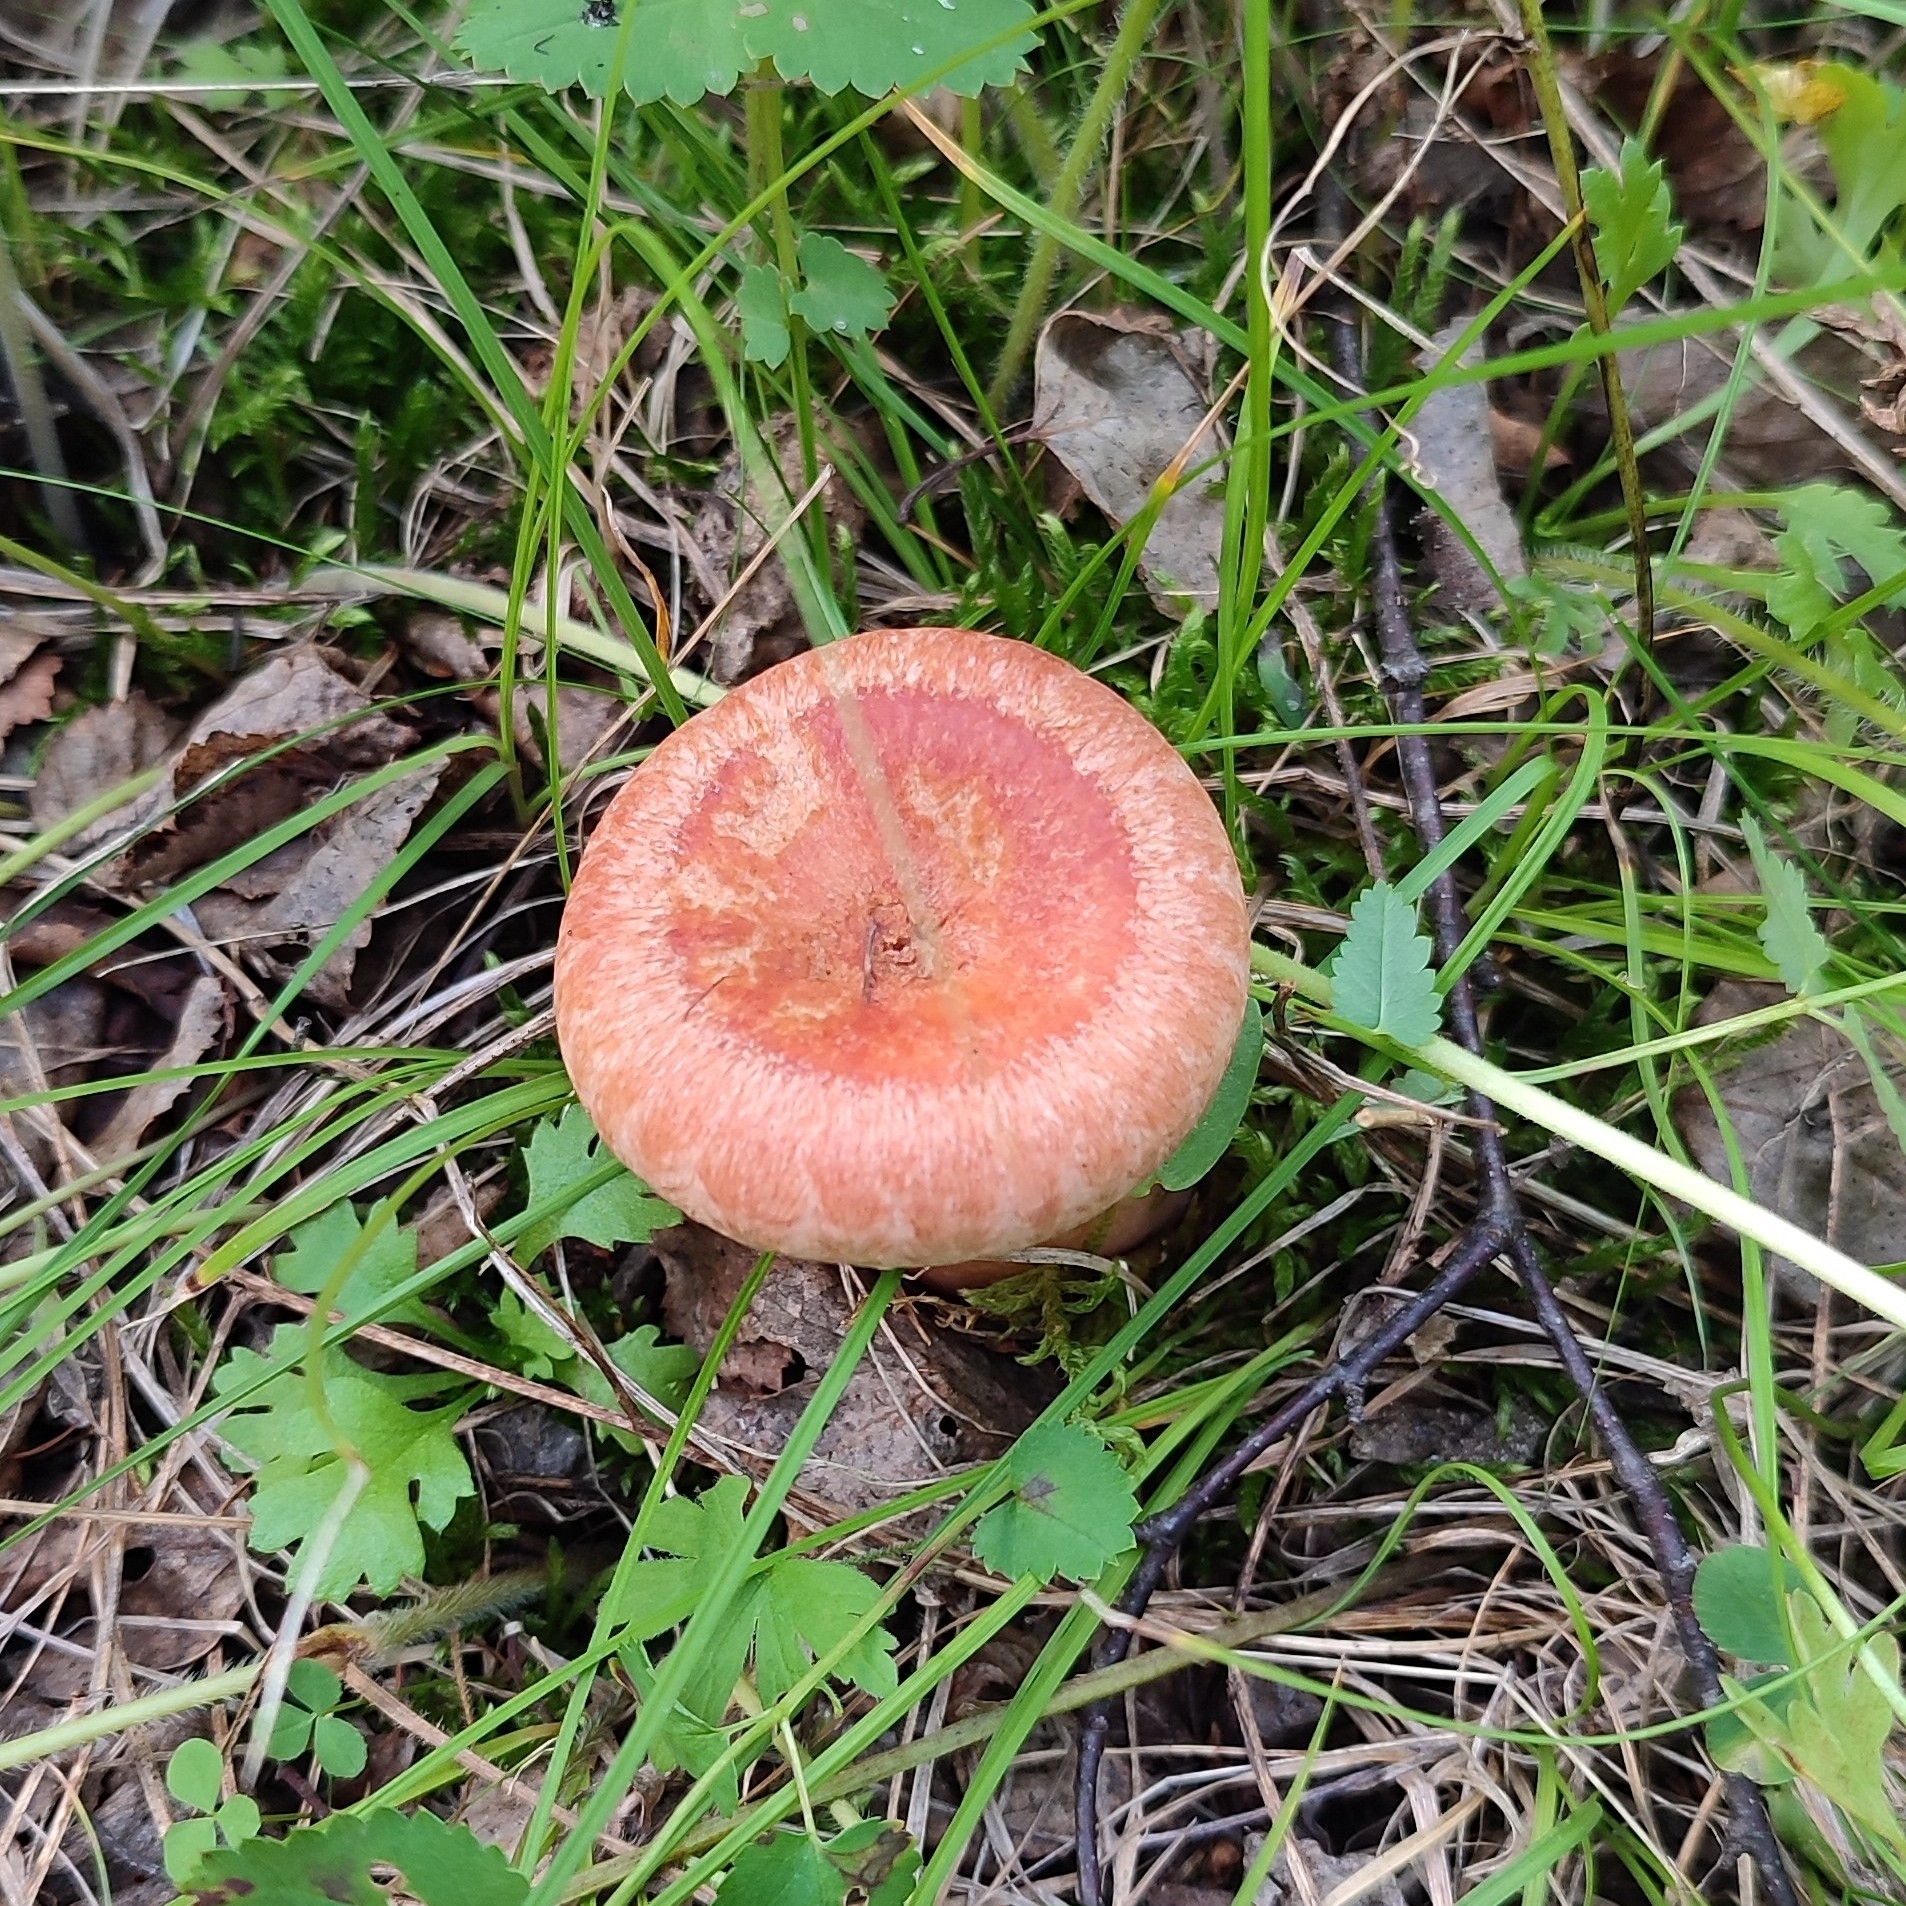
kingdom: Fungi
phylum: Basidiomycota
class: Agaricomycetes
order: Russulales
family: Russulaceae
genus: Lactarius
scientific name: Lactarius torminosus
